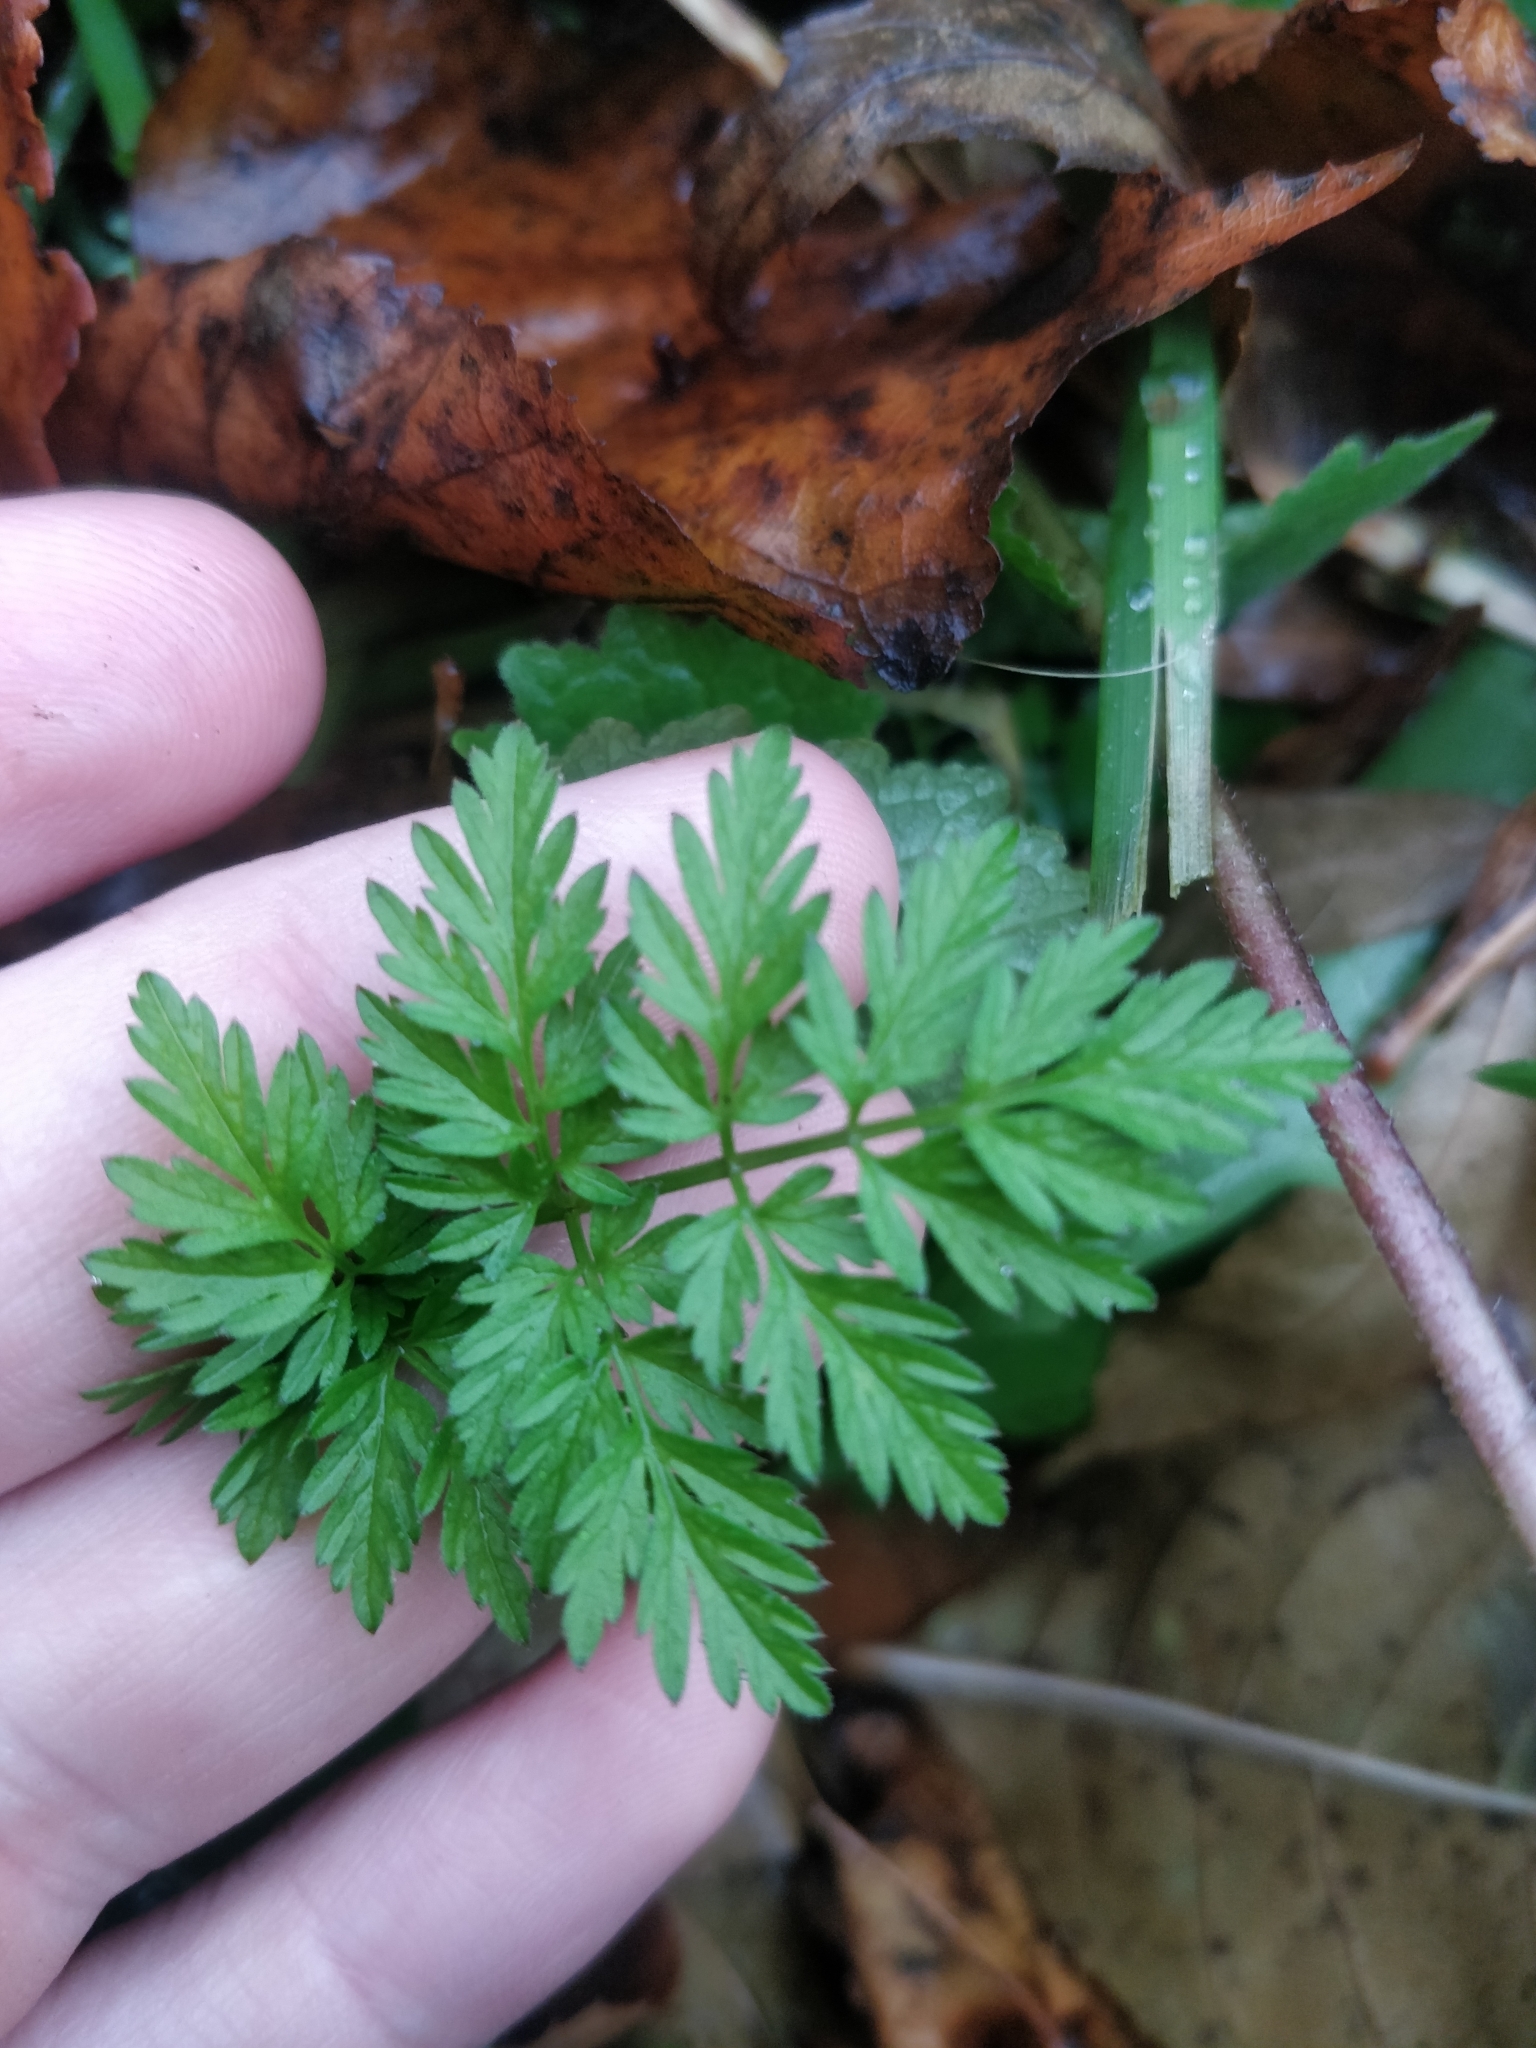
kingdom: Plantae
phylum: Tracheophyta
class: Magnoliopsida
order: Apiales
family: Apiaceae
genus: Anthriscus
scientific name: Anthriscus sylvestris
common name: Cow parsley
